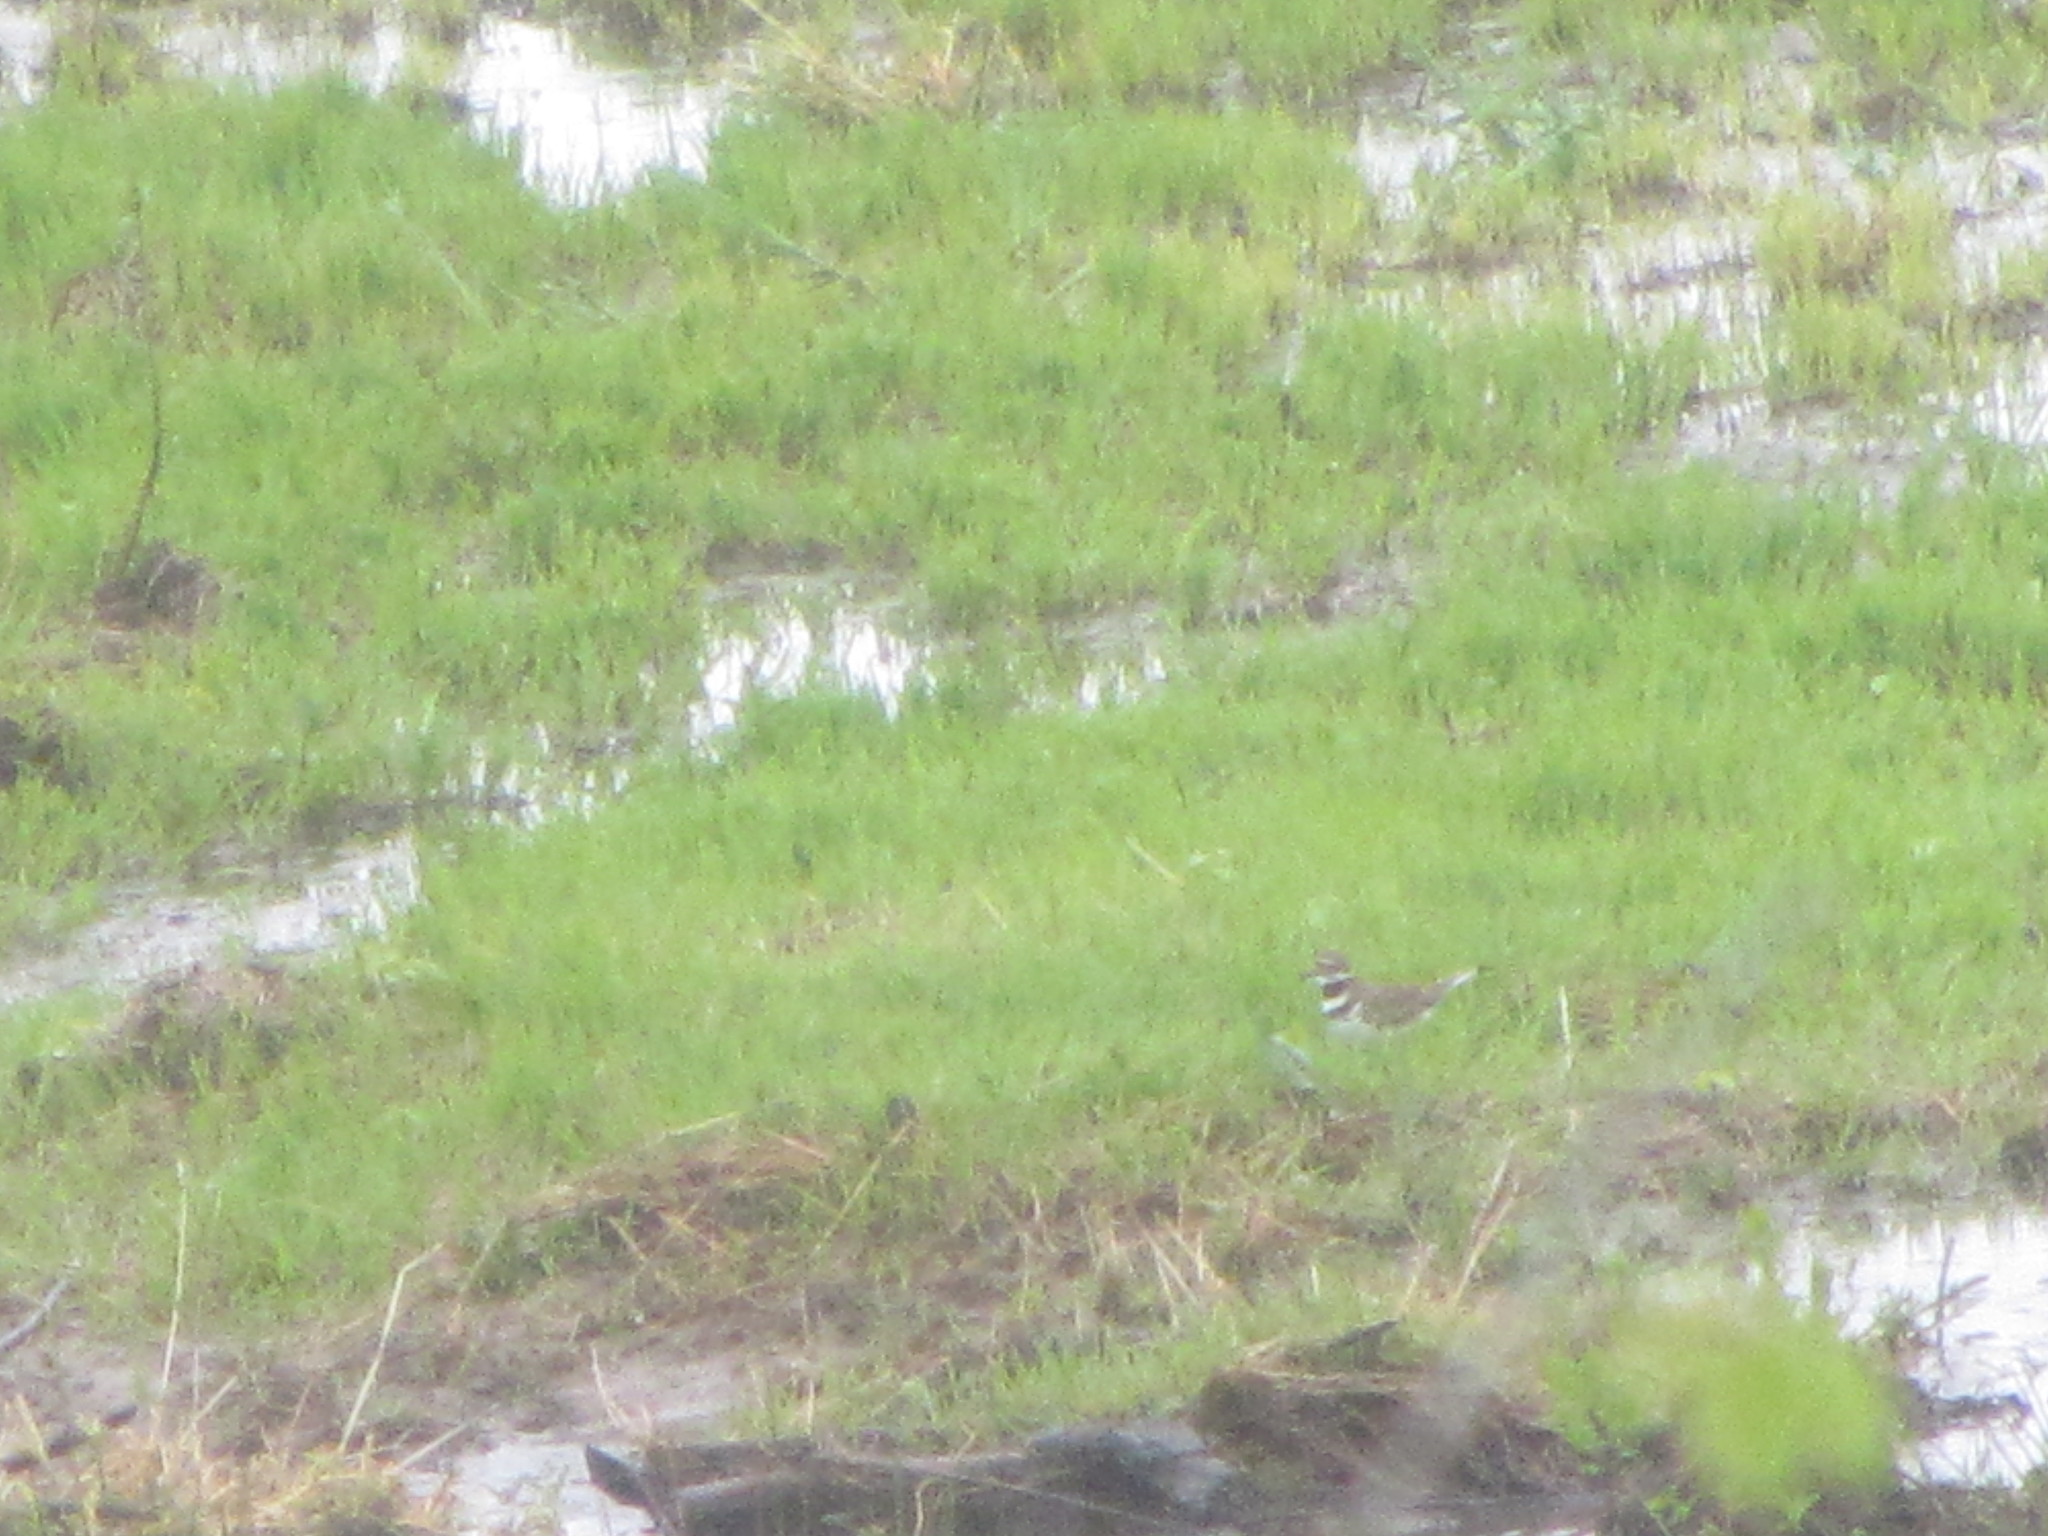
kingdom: Animalia
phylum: Chordata
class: Aves
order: Charadriiformes
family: Charadriidae
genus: Charadrius
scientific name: Charadrius vociferus
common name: Killdeer
